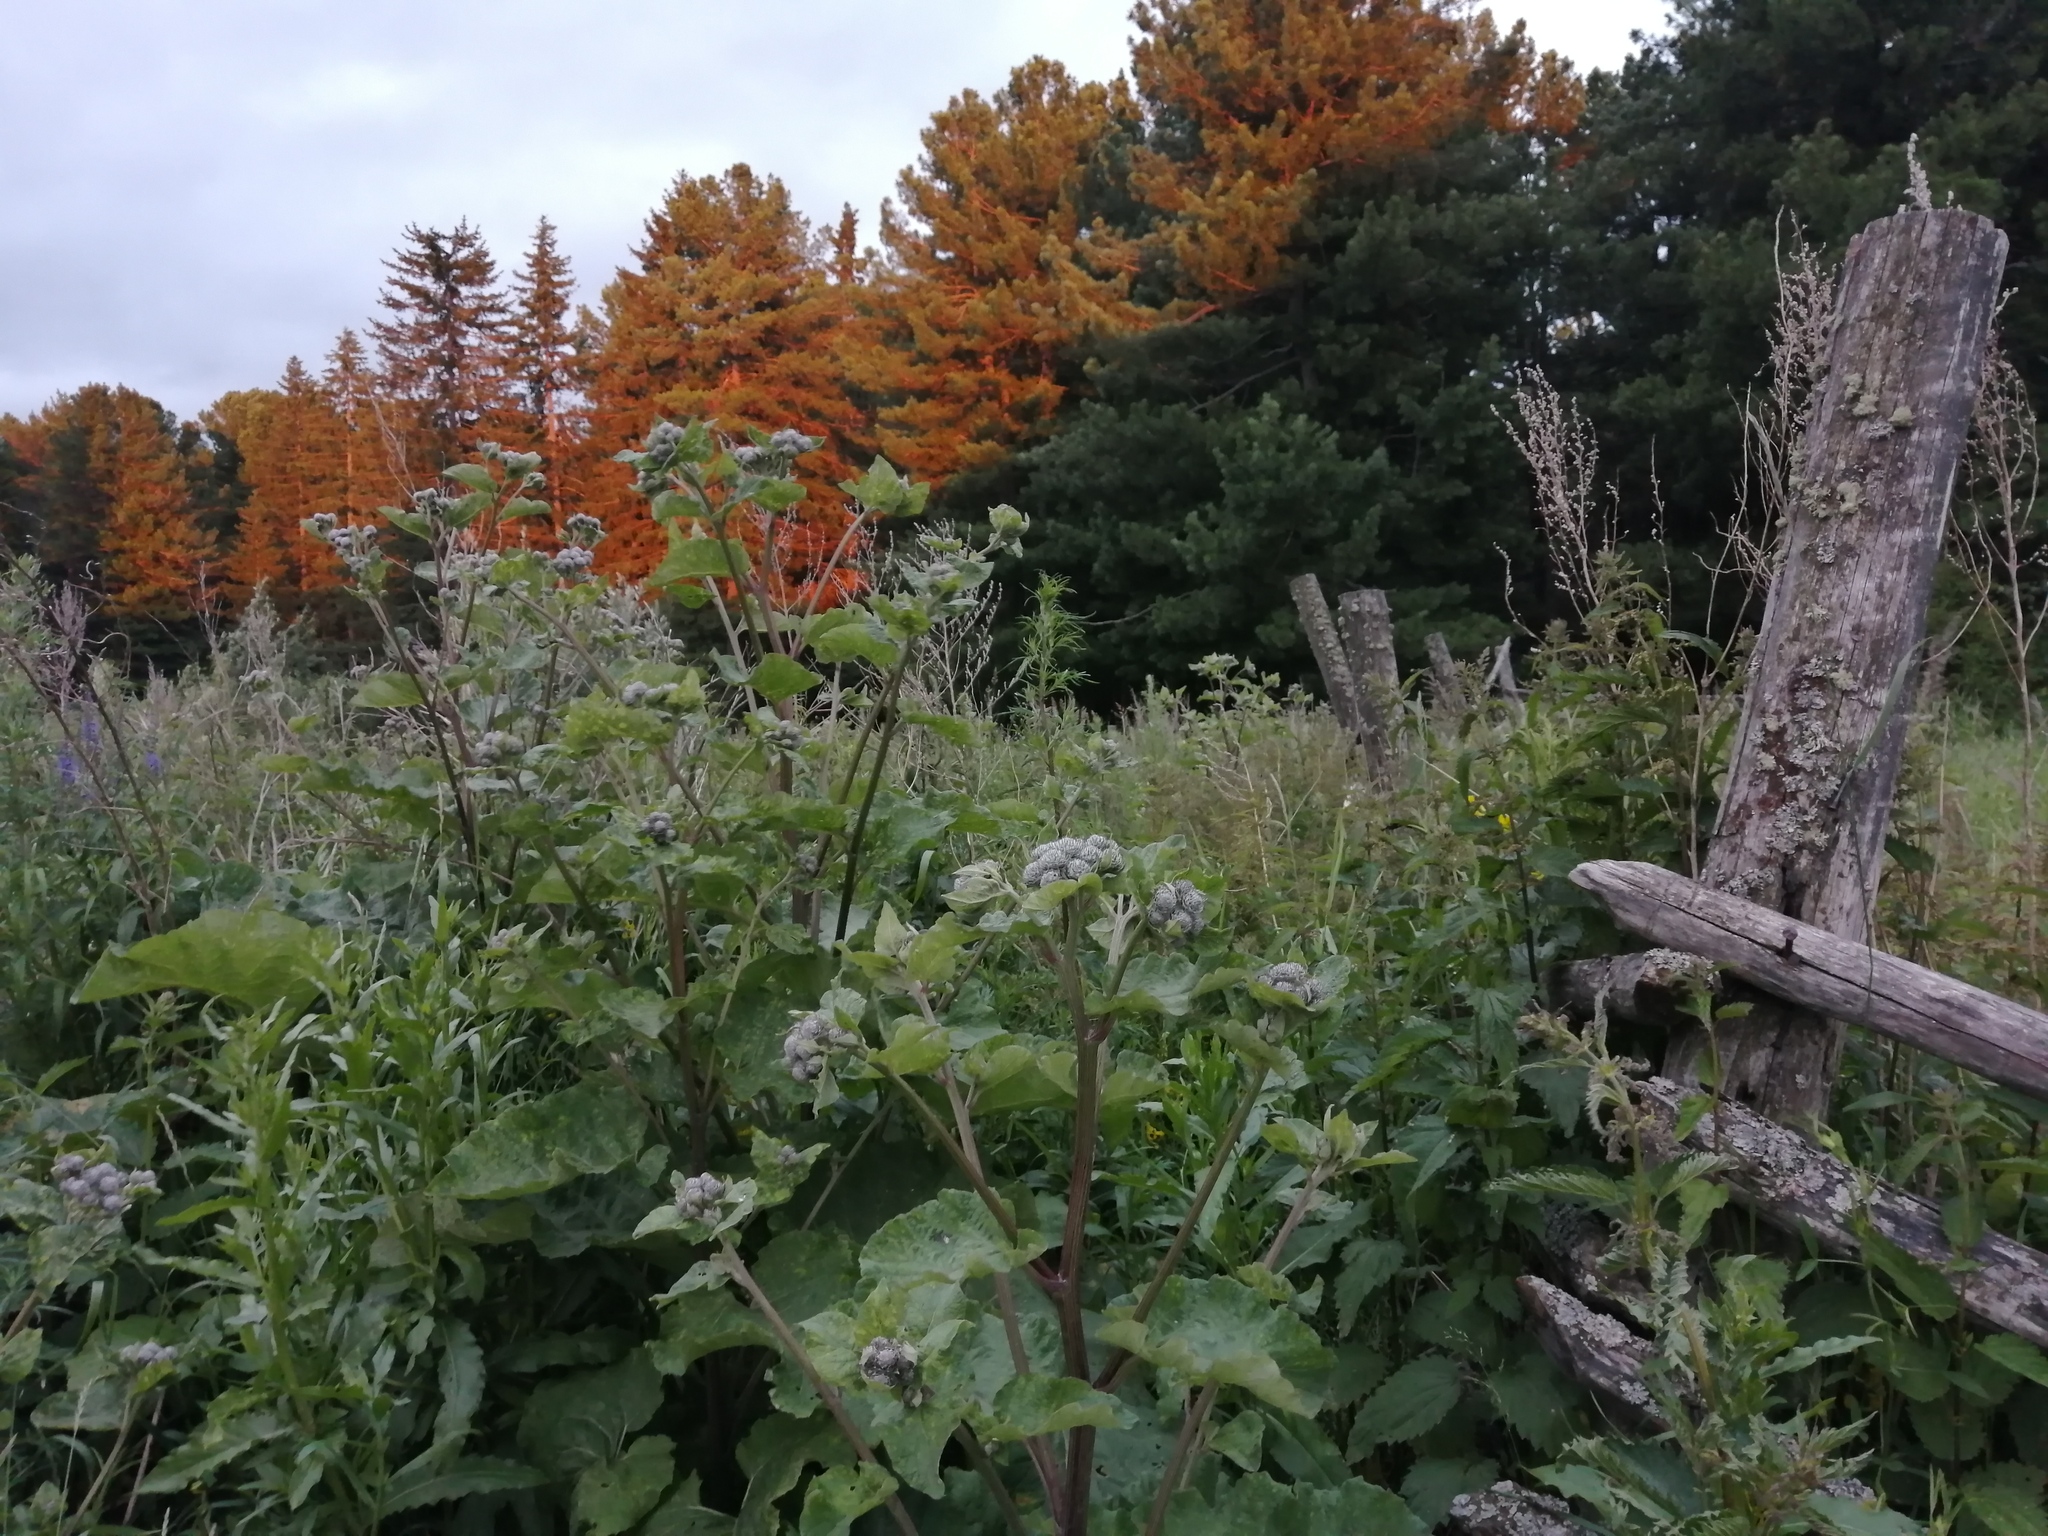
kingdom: Plantae
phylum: Tracheophyta
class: Magnoliopsida
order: Asterales
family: Asteraceae
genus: Arctium
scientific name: Arctium tomentosum
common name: Woolly burdock
